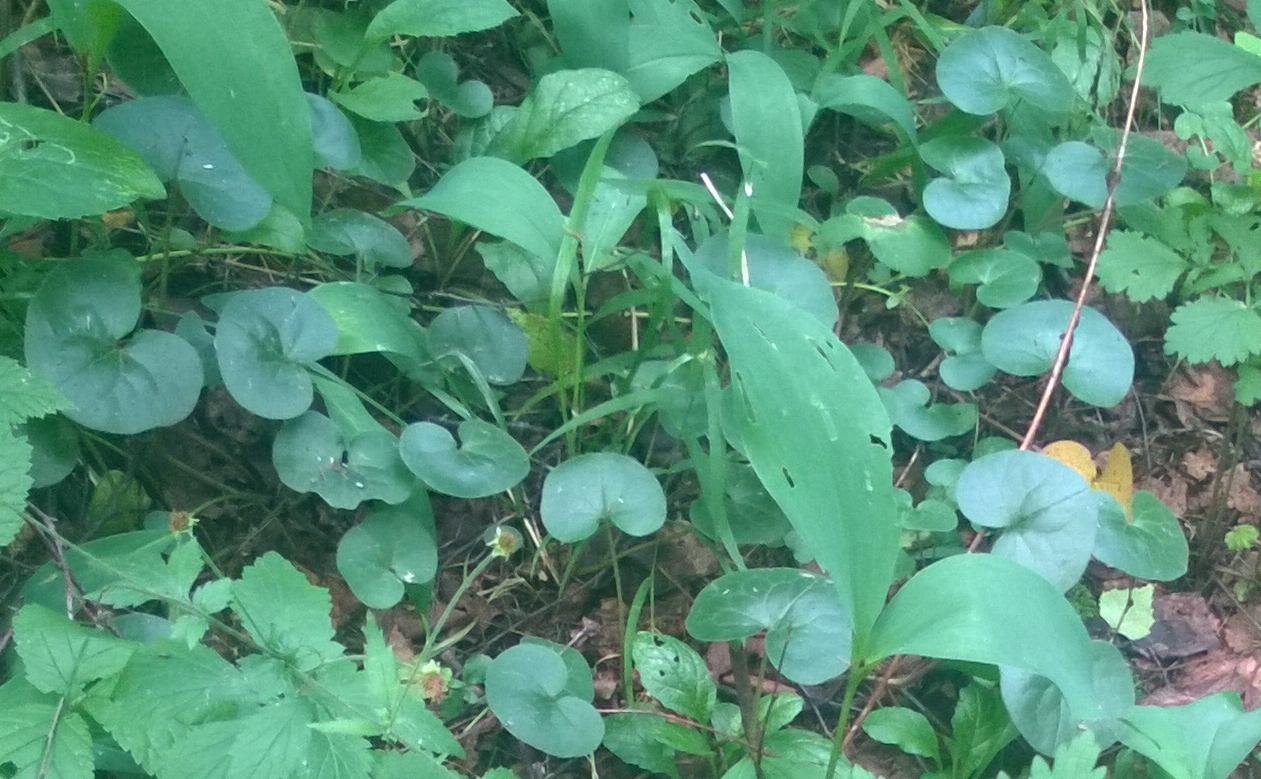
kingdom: Plantae
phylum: Tracheophyta
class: Magnoliopsida
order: Piperales
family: Aristolochiaceae
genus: Asarum
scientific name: Asarum europaeum
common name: Asarabacca
